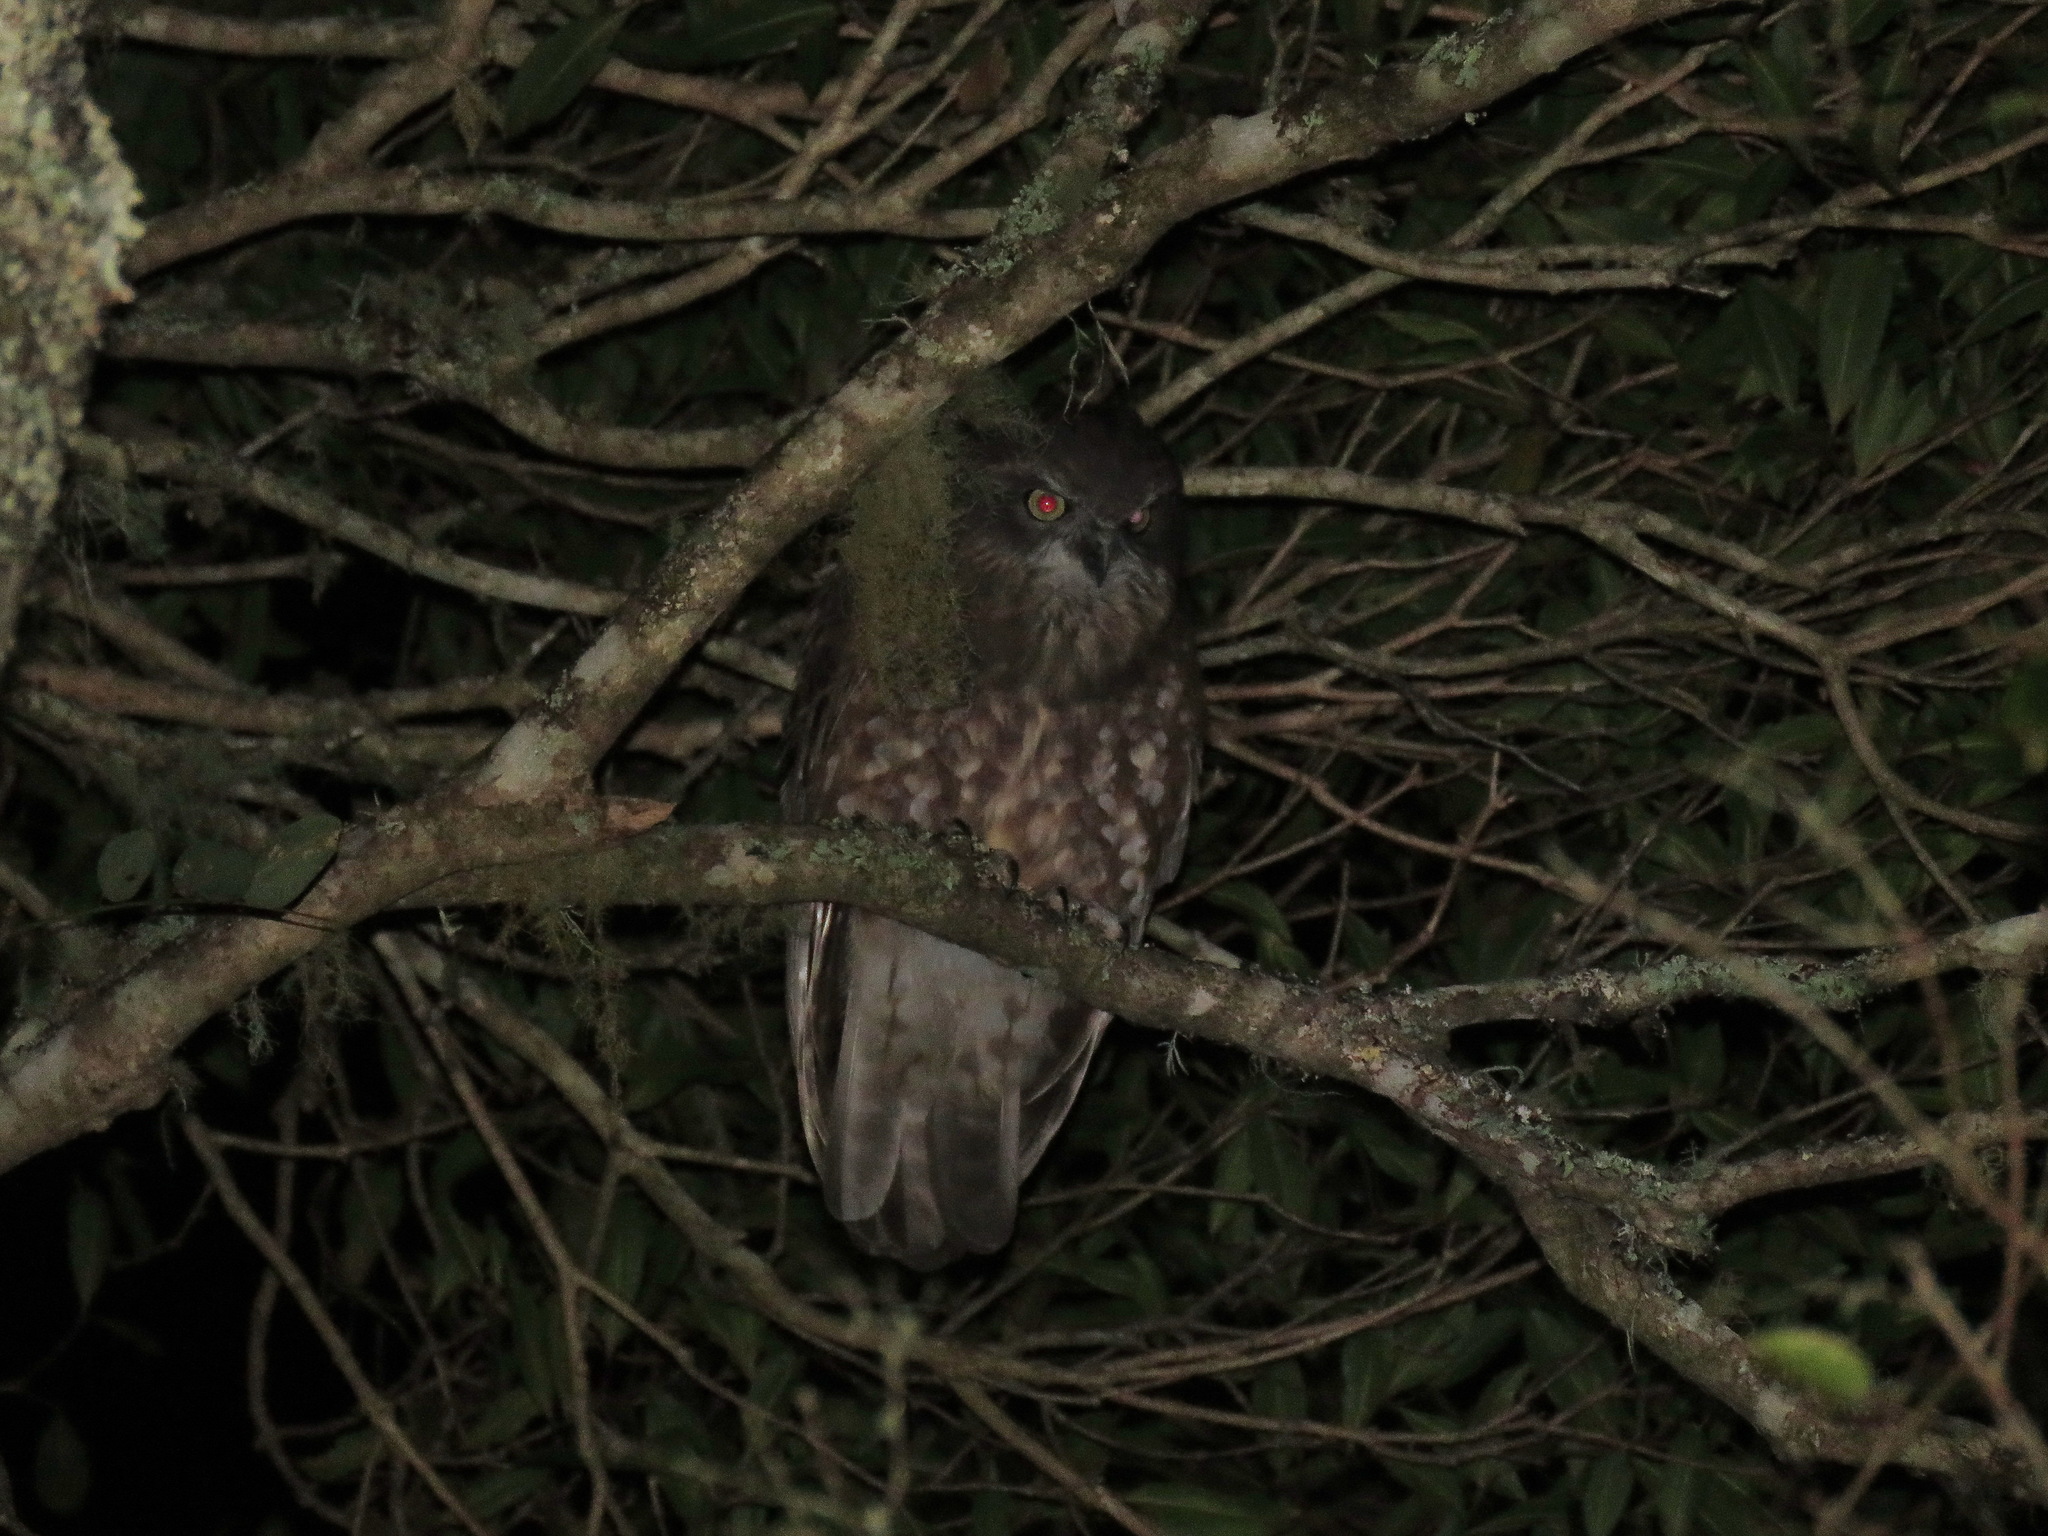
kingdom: Animalia
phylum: Chordata
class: Aves
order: Strigiformes
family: Strigidae
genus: Ninox
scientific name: Ninox boobook
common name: Southern boobook
